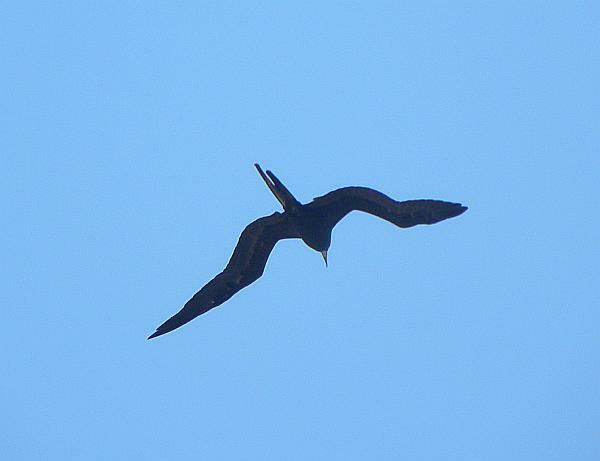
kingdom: Animalia
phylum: Chordata
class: Aves
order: Suliformes
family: Fregatidae
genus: Fregata
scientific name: Fregata magnificens
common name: Magnificent frigatebird
